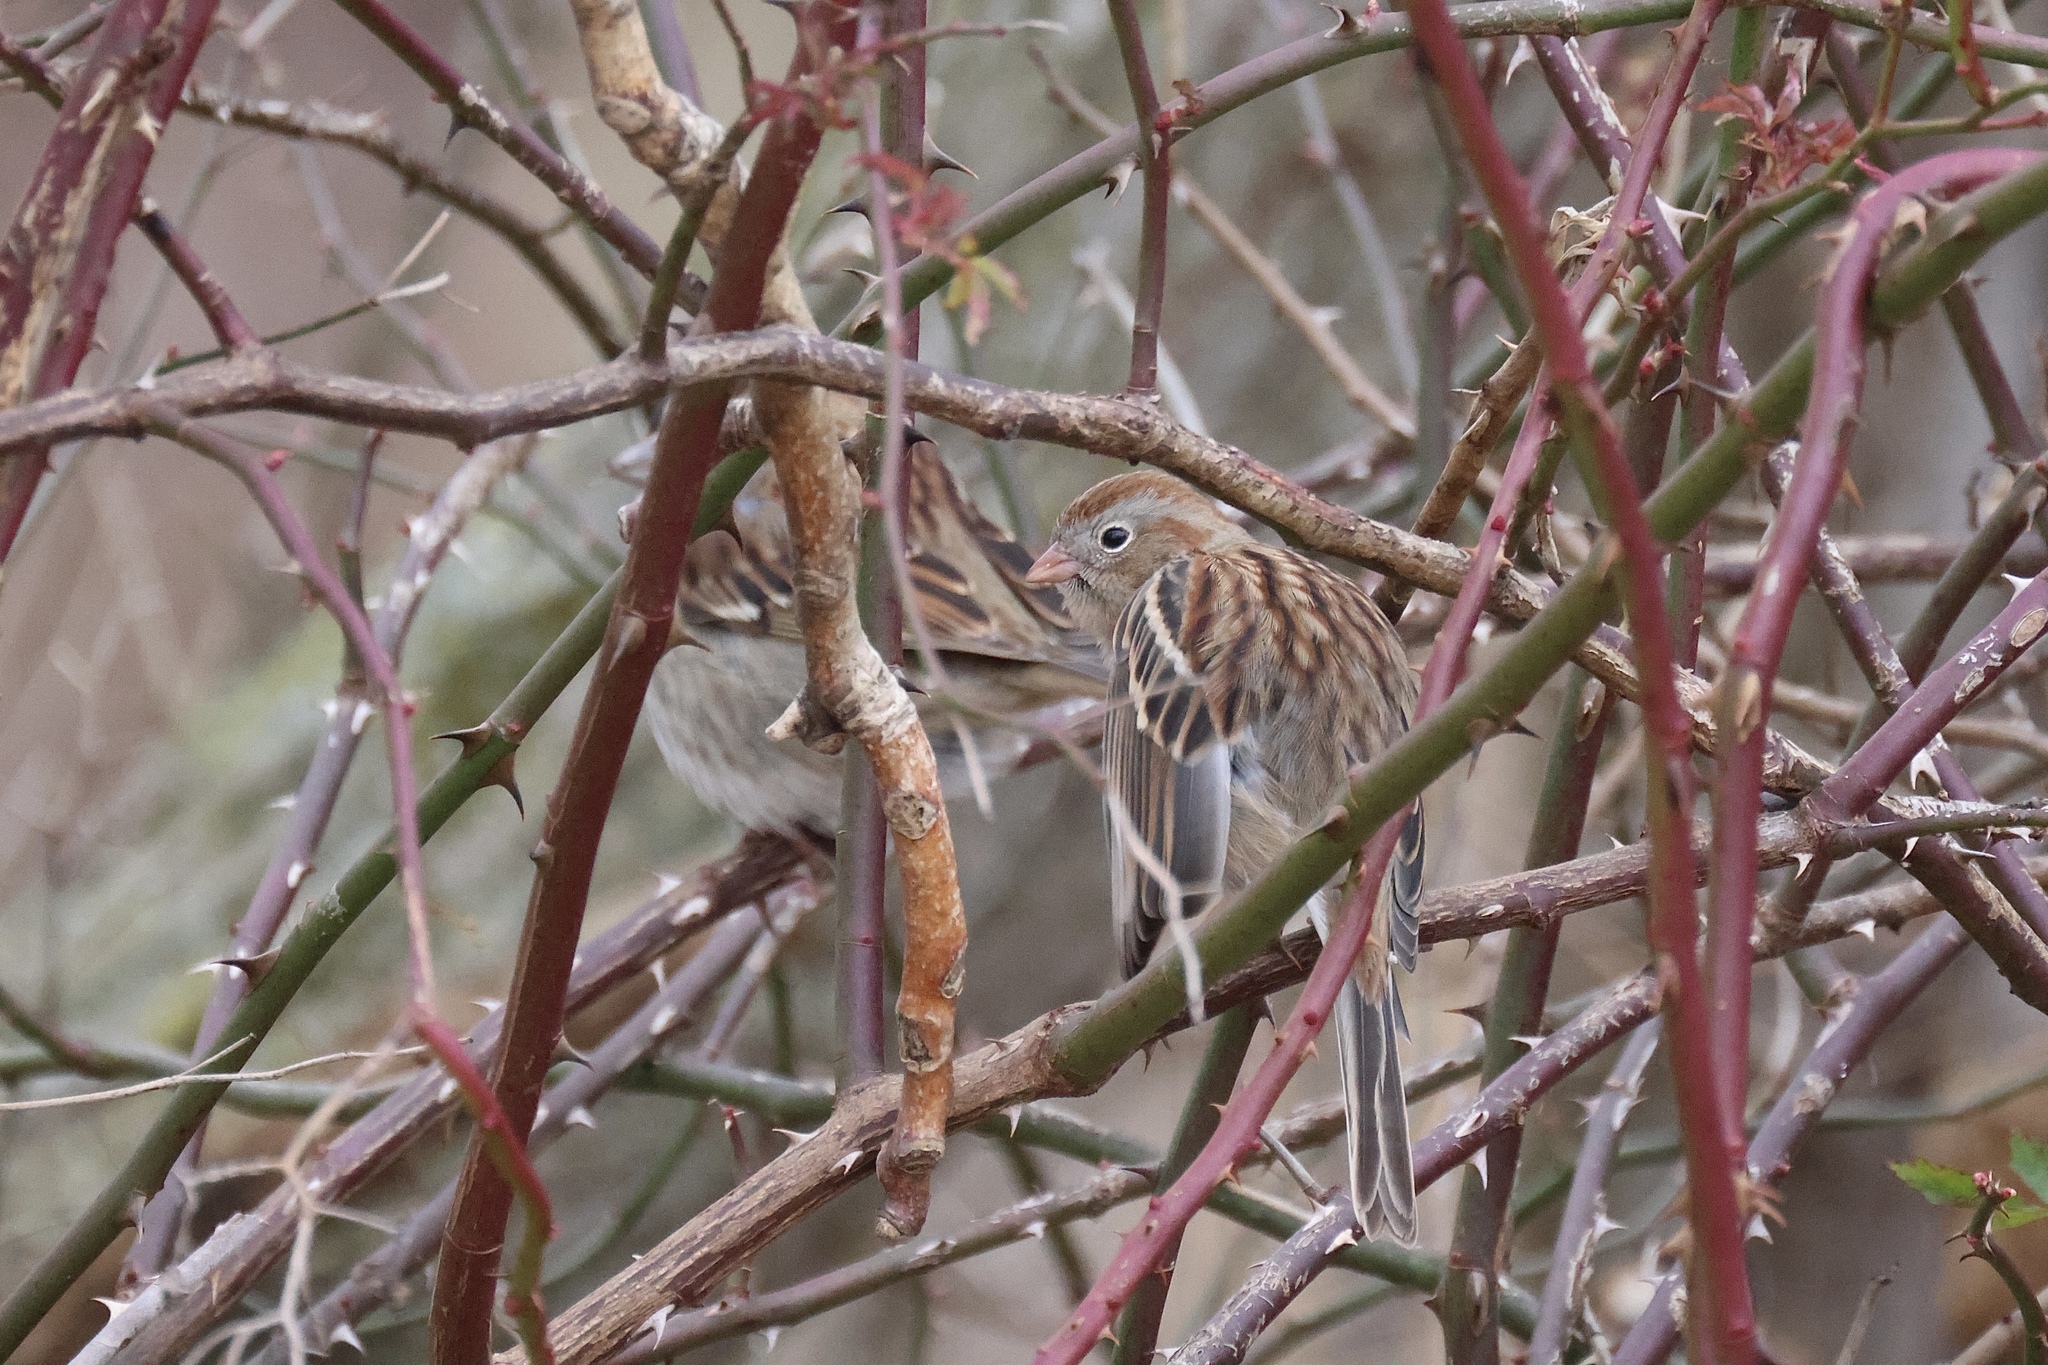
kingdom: Animalia
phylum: Chordata
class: Aves
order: Passeriformes
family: Passerellidae
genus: Spizella
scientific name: Spizella pusilla
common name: Field sparrow
